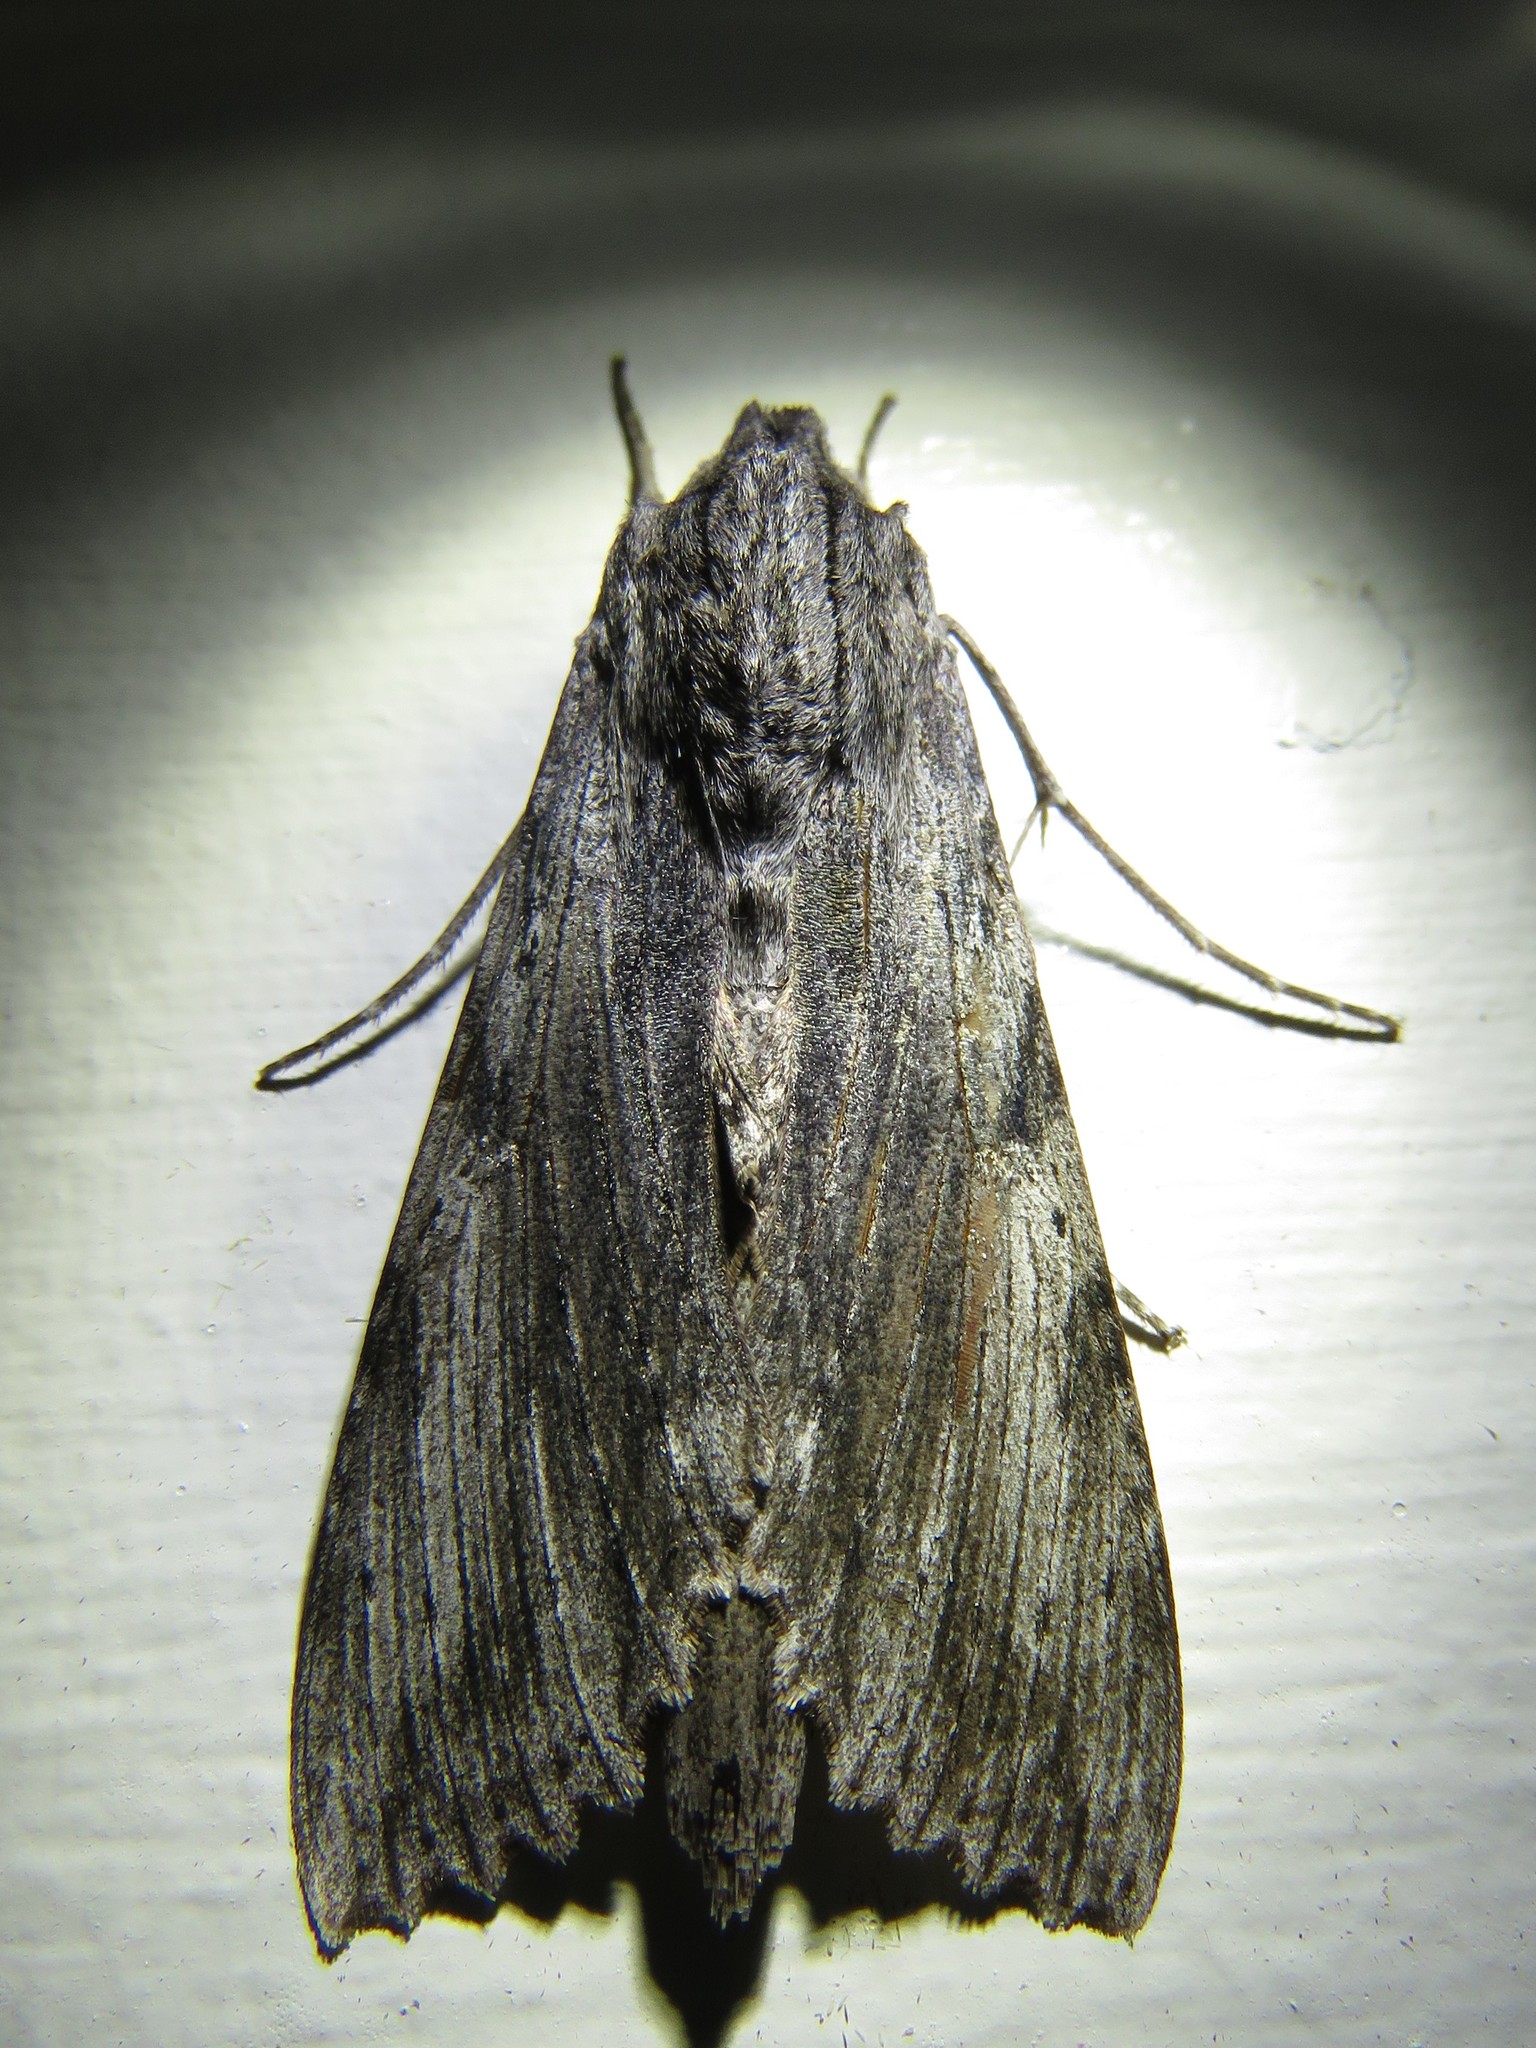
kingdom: Animalia
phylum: Arthropoda
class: Insecta
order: Lepidoptera
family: Sphingidae
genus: Erinnyis
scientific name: Erinnyis obscura
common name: Obscure sphinx
